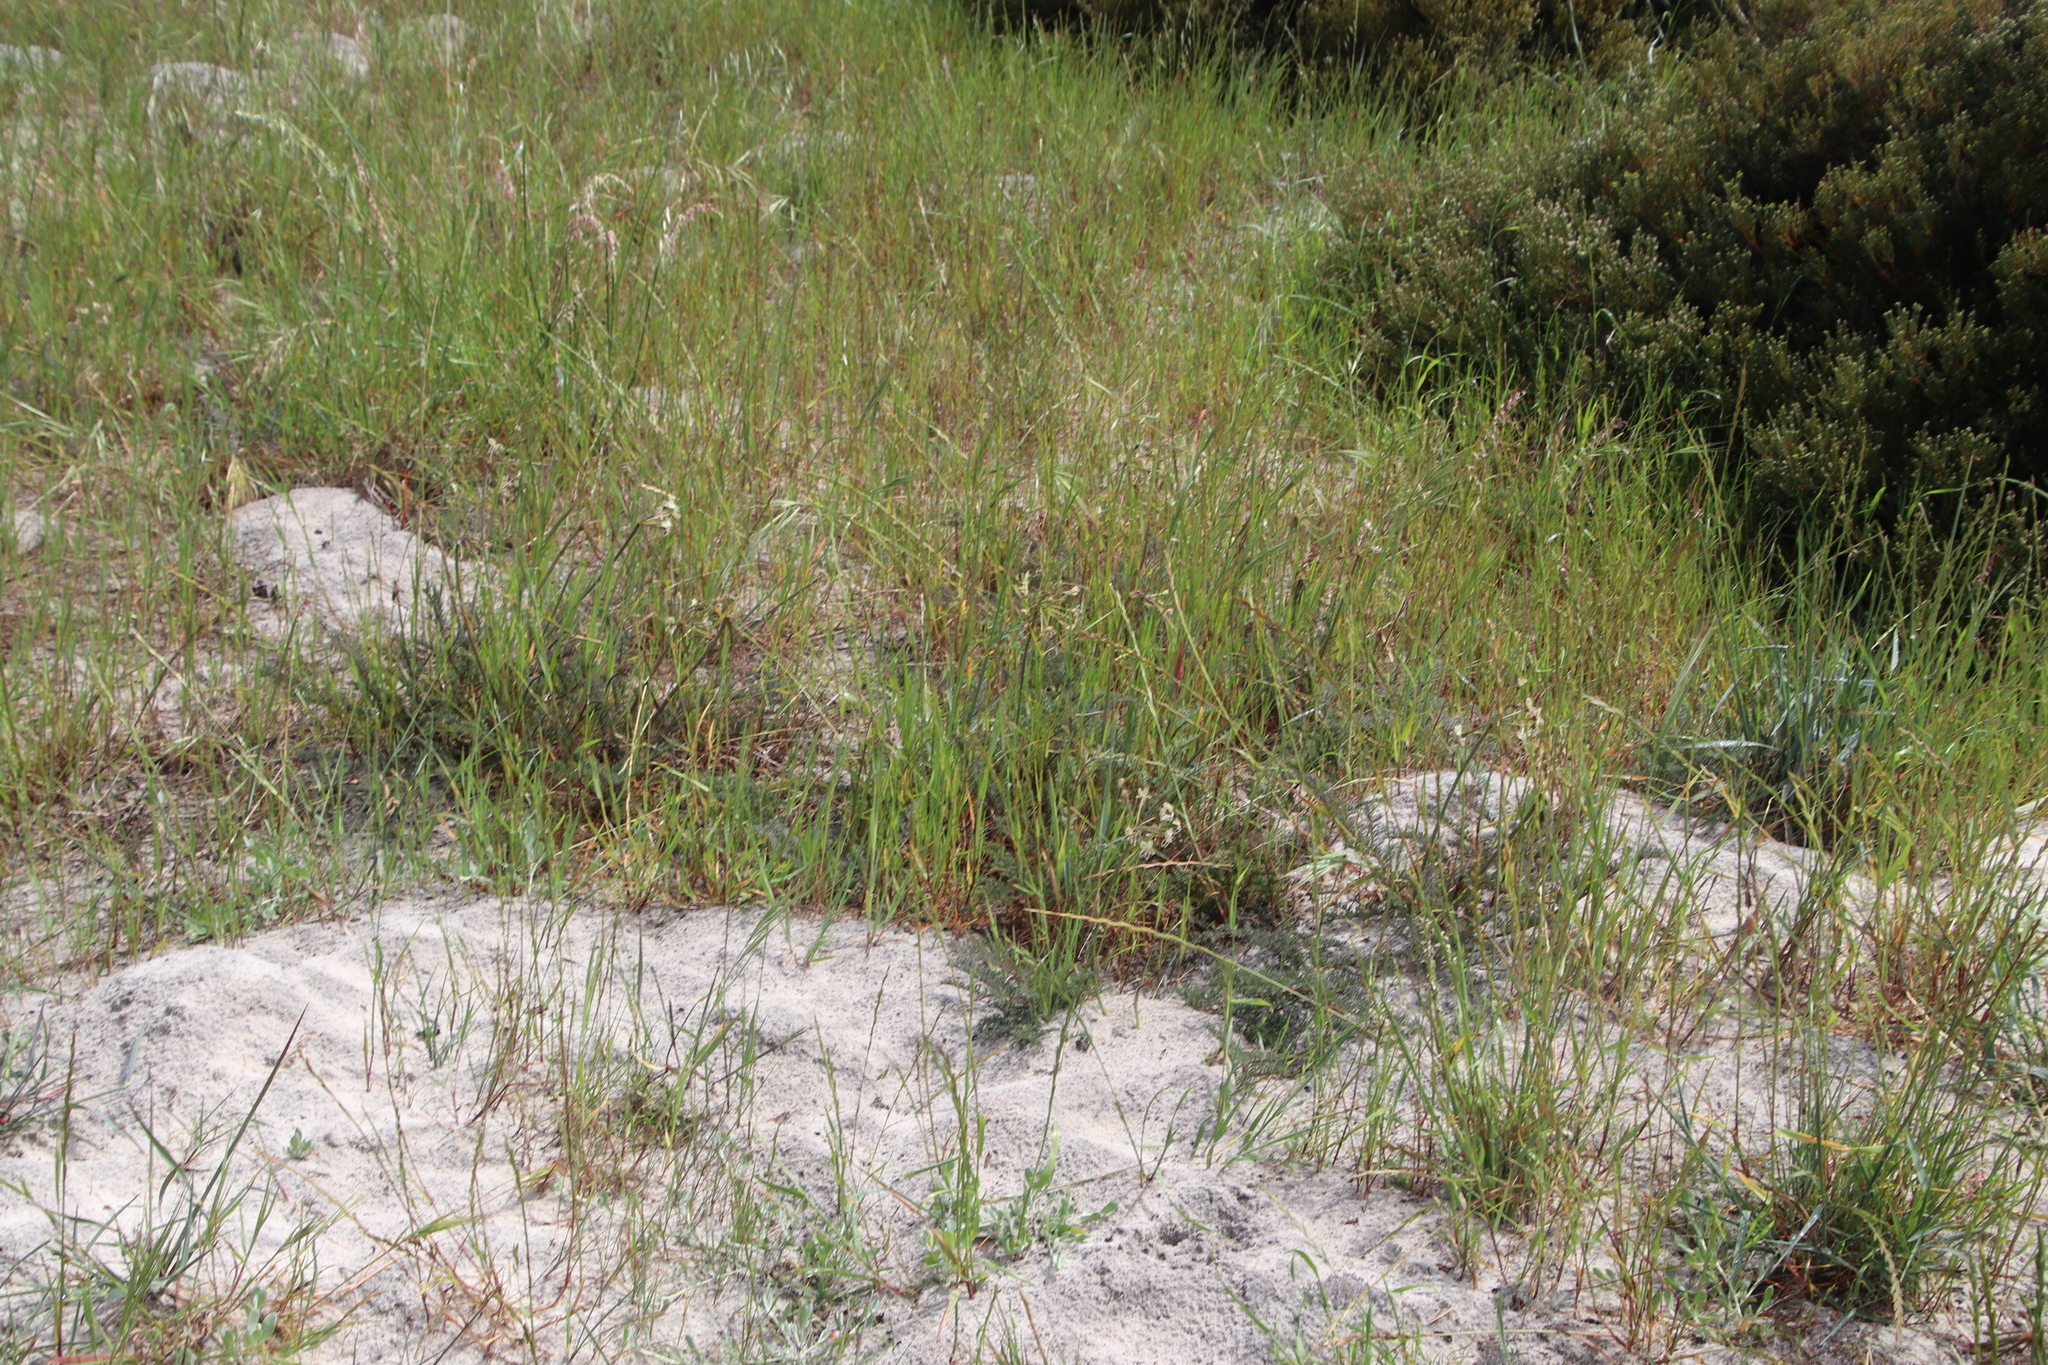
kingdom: Plantae
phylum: Tracheophyta
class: Magnoliopsida
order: Geraniales
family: Geraniaceae
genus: Pelargonium
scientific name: Pelargonium triste
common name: Night-scent pelargonium
